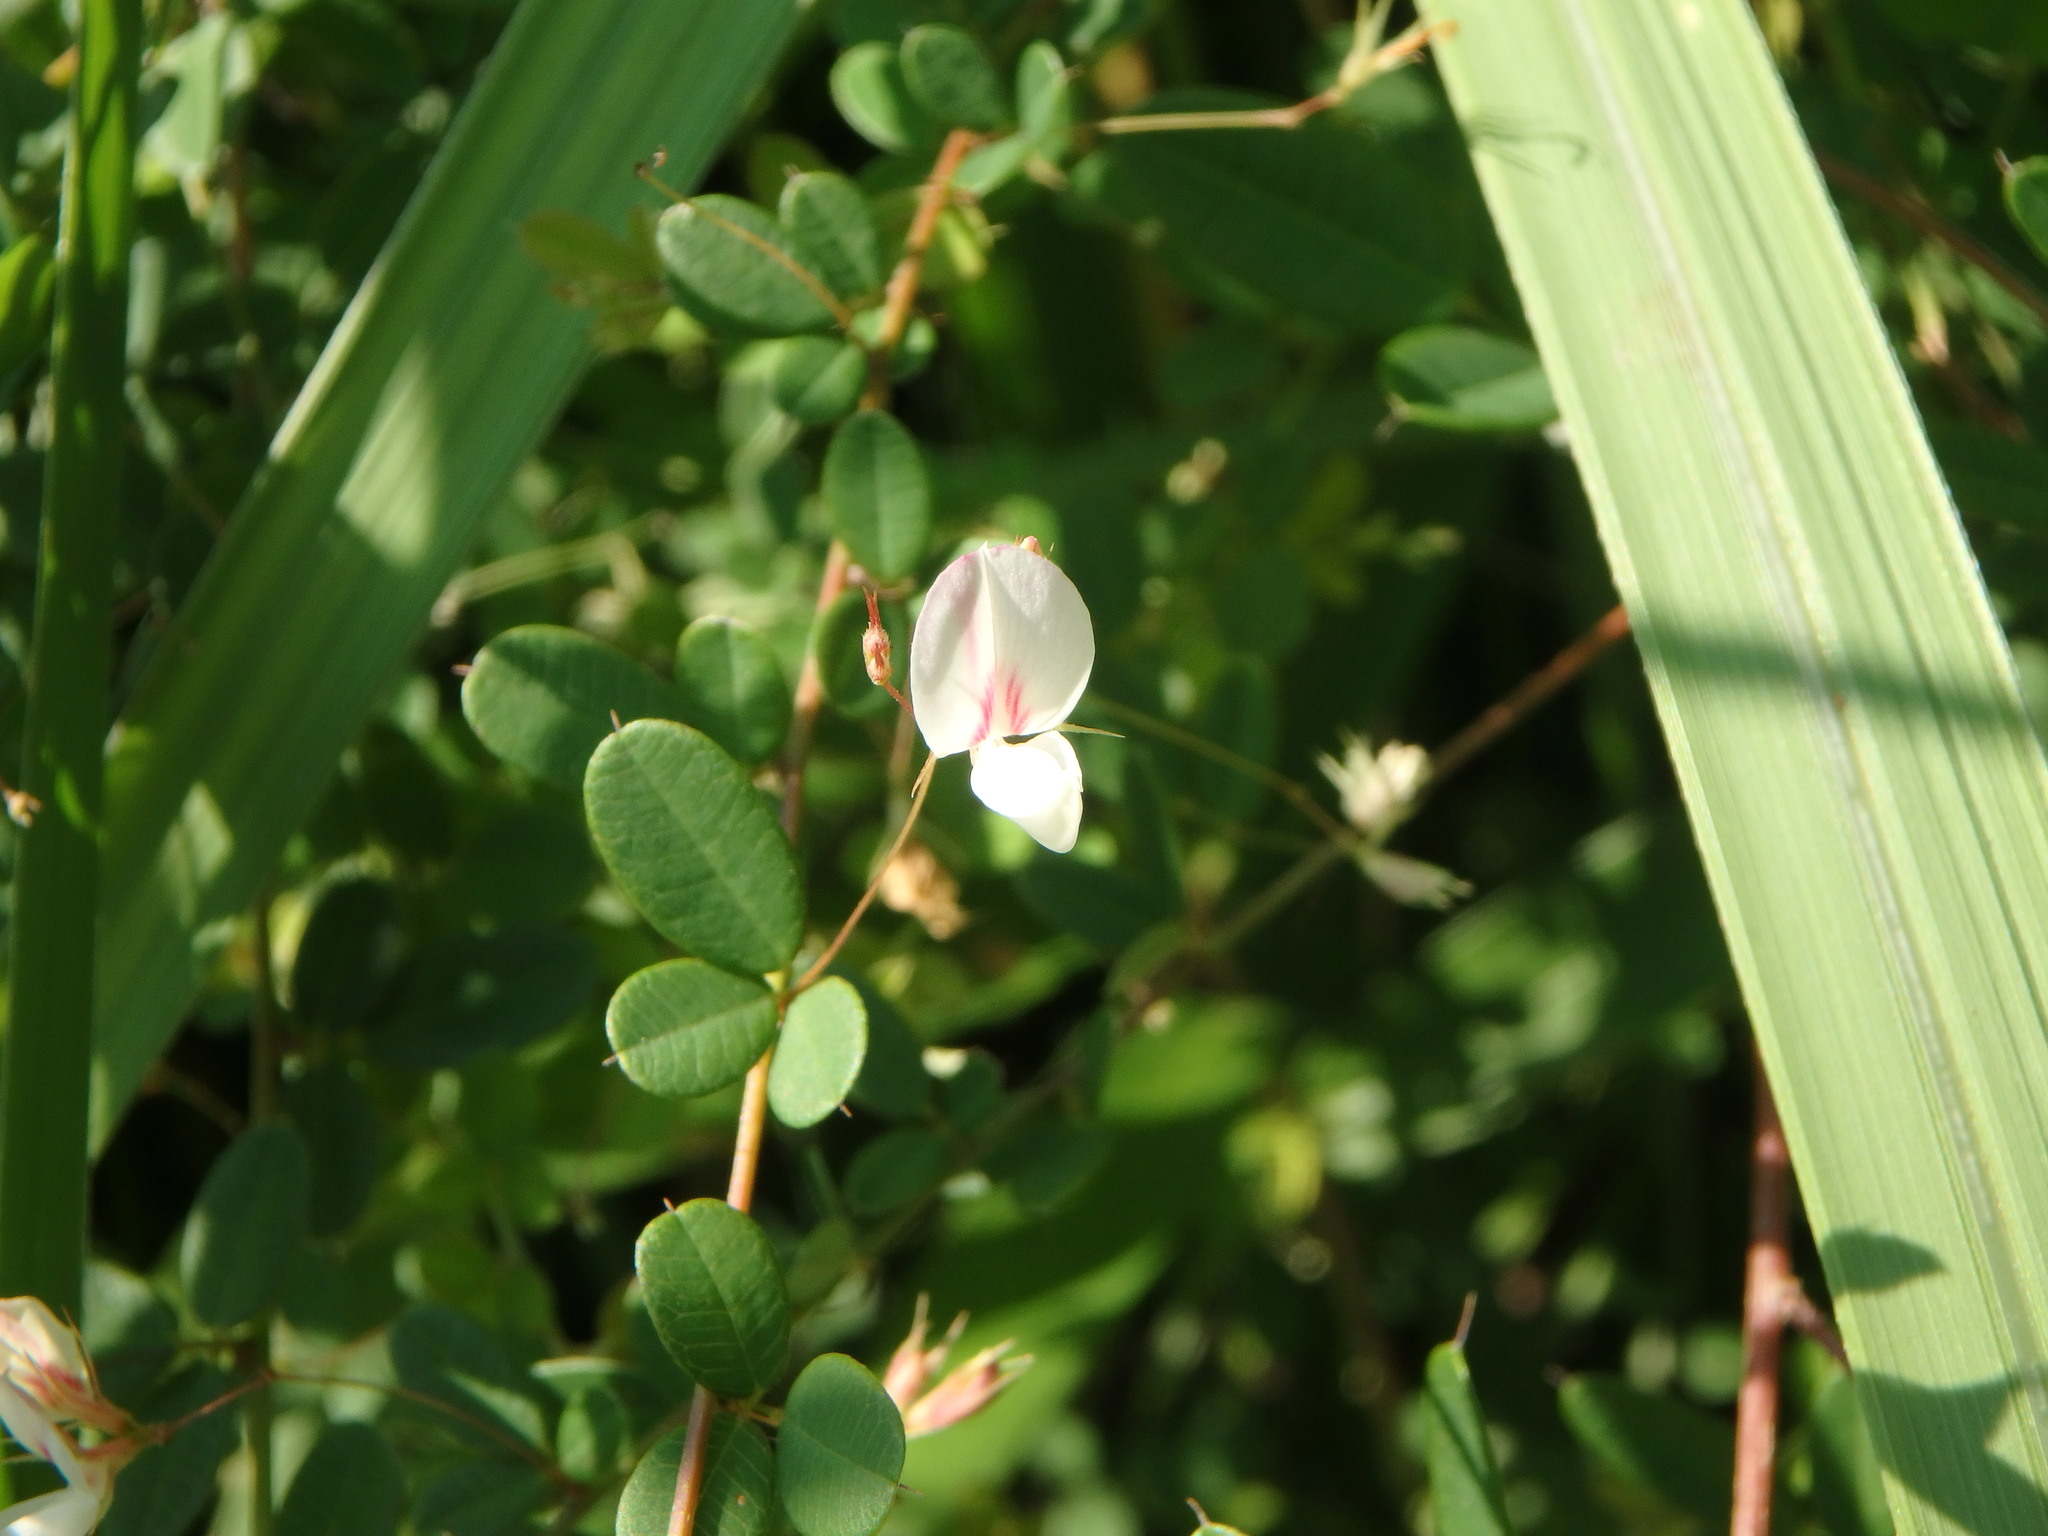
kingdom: Plantae
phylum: Tracheophyta
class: Magnoliopsida
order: Fabales
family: Fabaceae
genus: Lespedeza
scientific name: Lespedeza virgata
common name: Wand lespedeza
